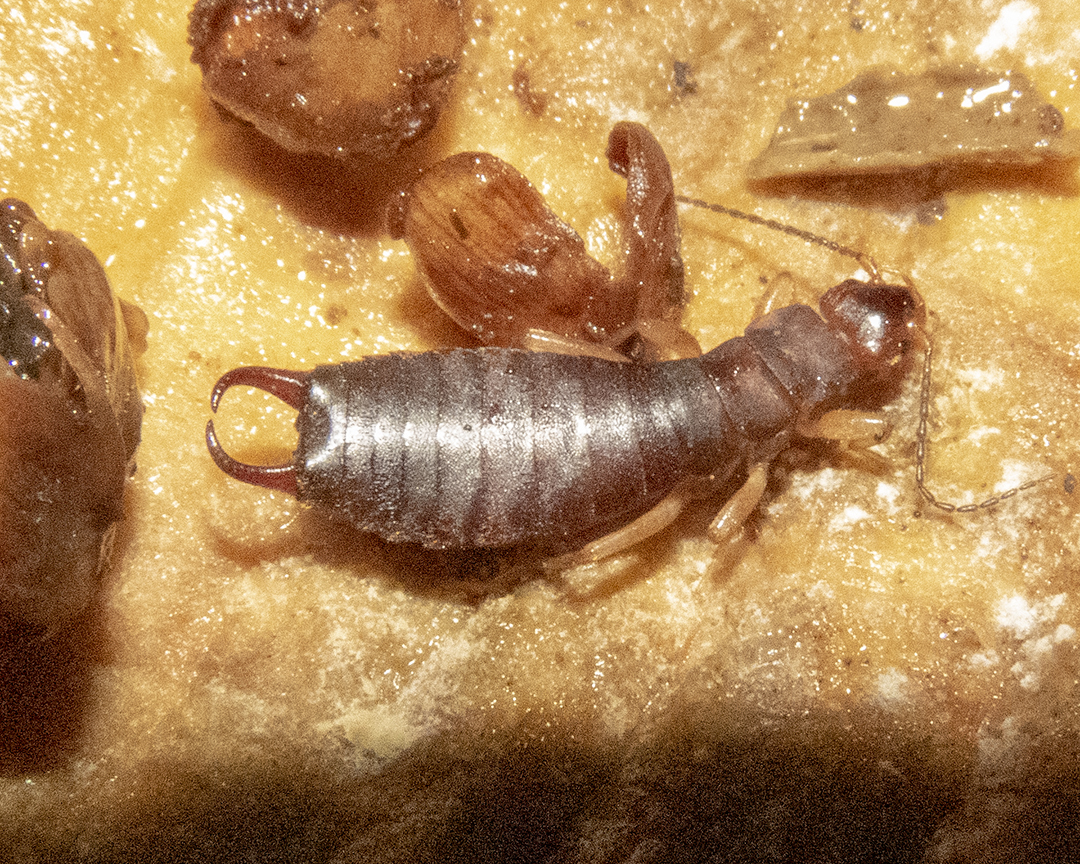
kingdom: Animalia
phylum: Arthropoda
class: Insecta
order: Dermaptera
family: Anisolabididae
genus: Parisolabis
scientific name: Parisolabis novaezeelandiae
